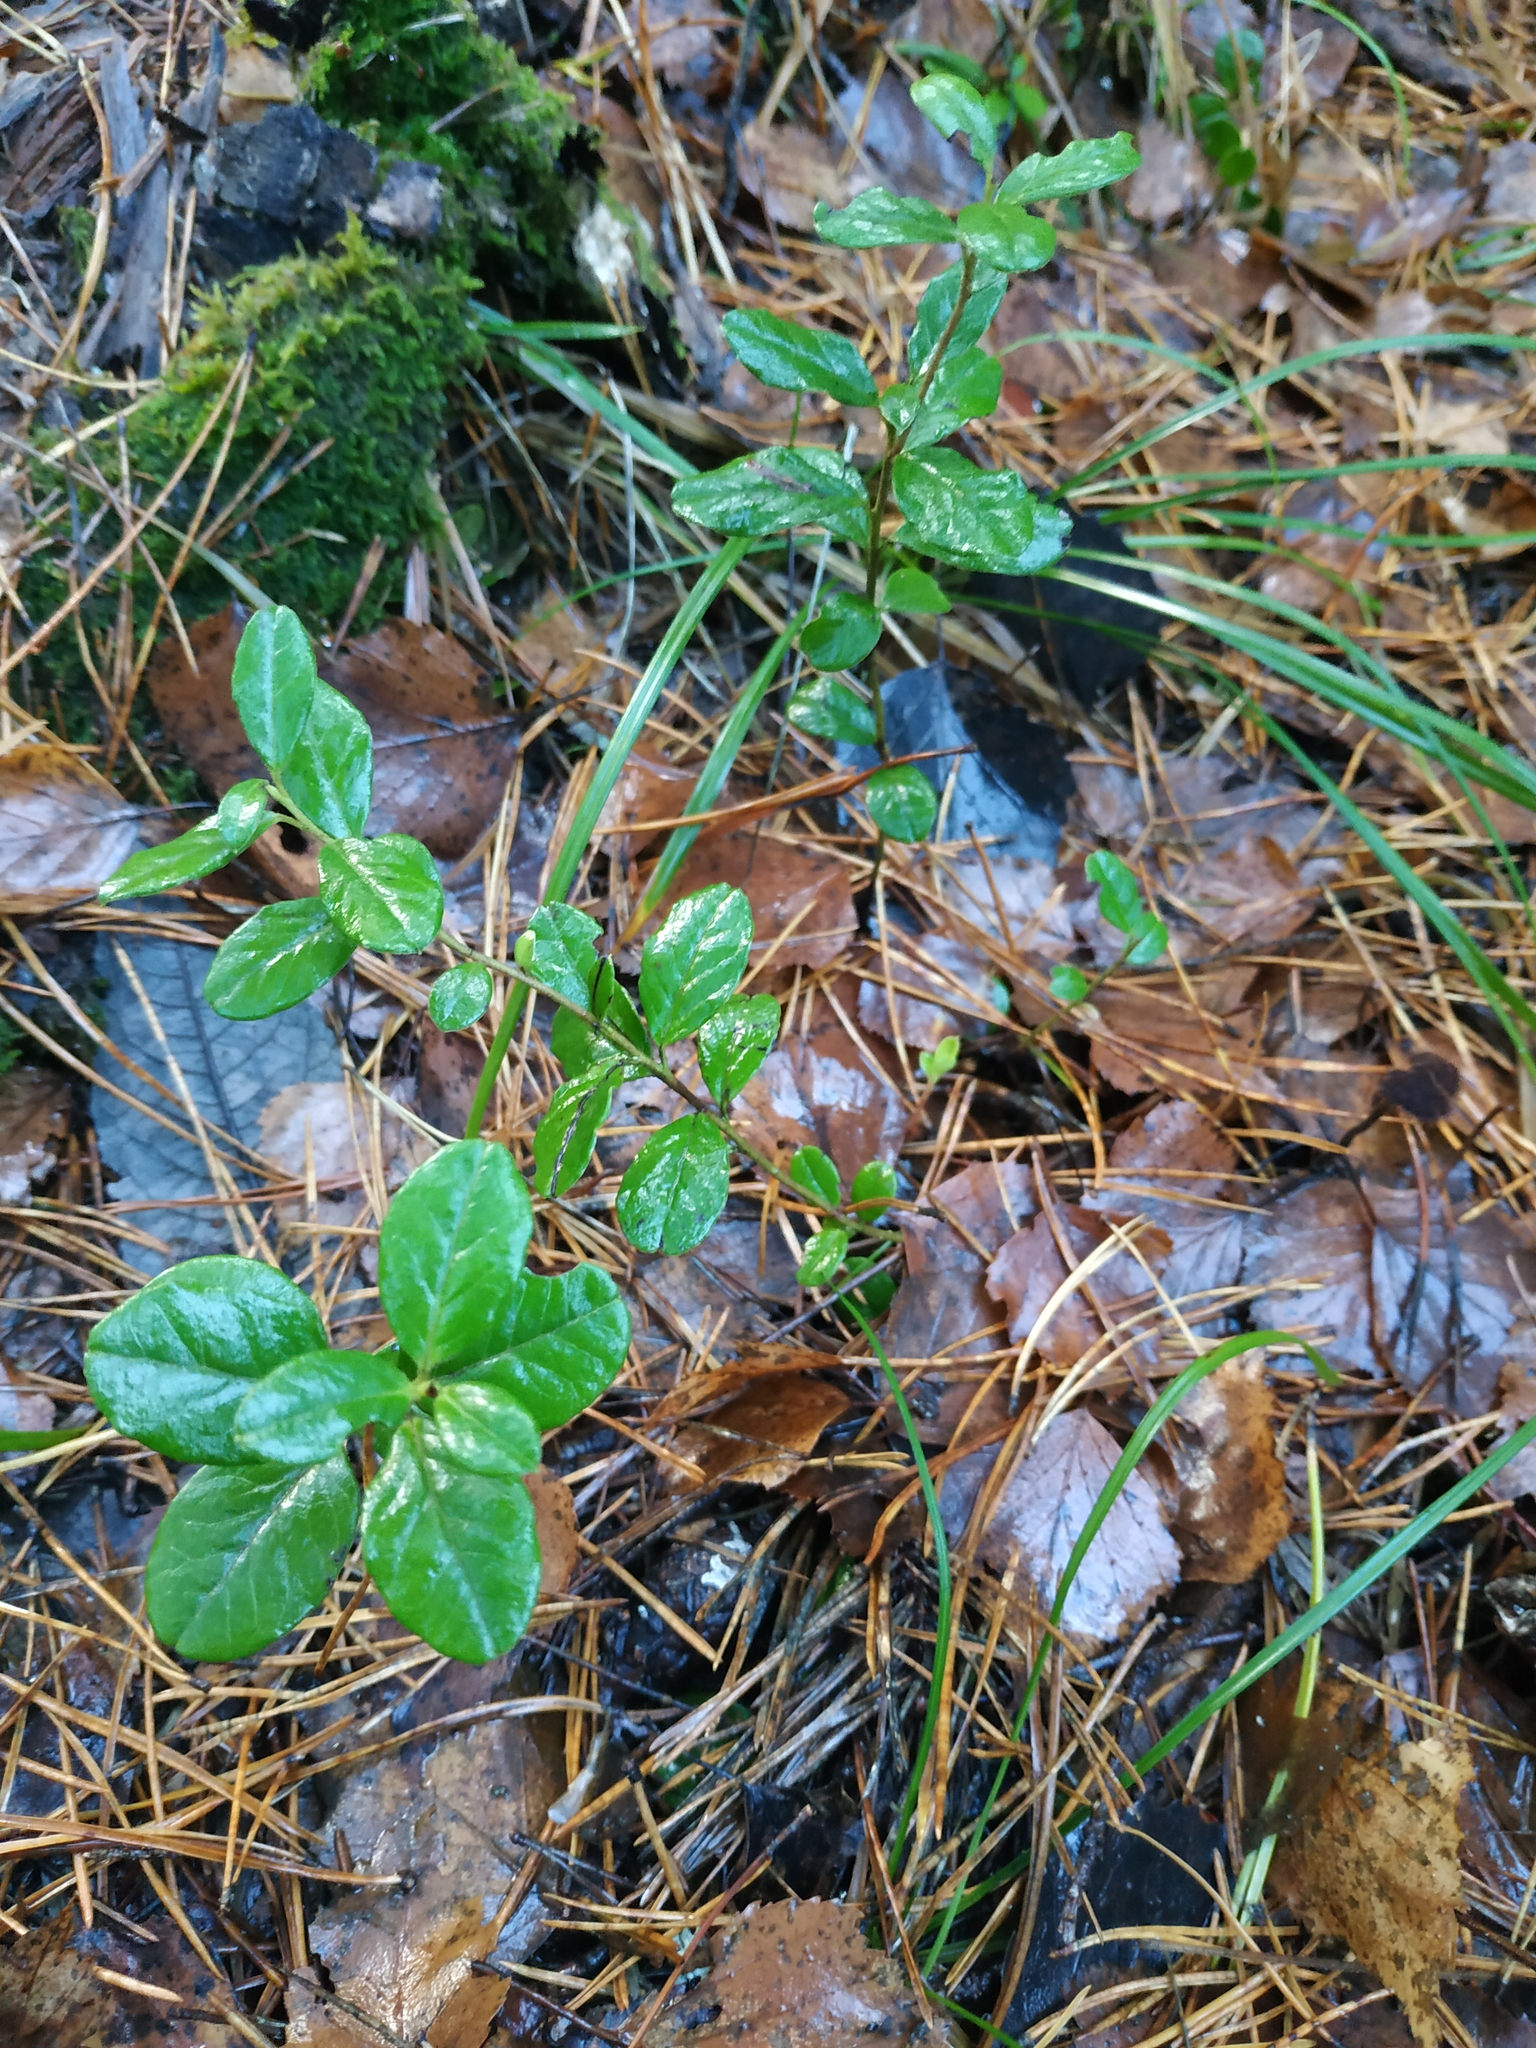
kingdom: Plantae
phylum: Tracheophyta
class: Magnoliopsida
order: Ericales
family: Ericaceae
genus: Vaccinium
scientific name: Vaccinium vitis-idaea
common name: Cowberry
